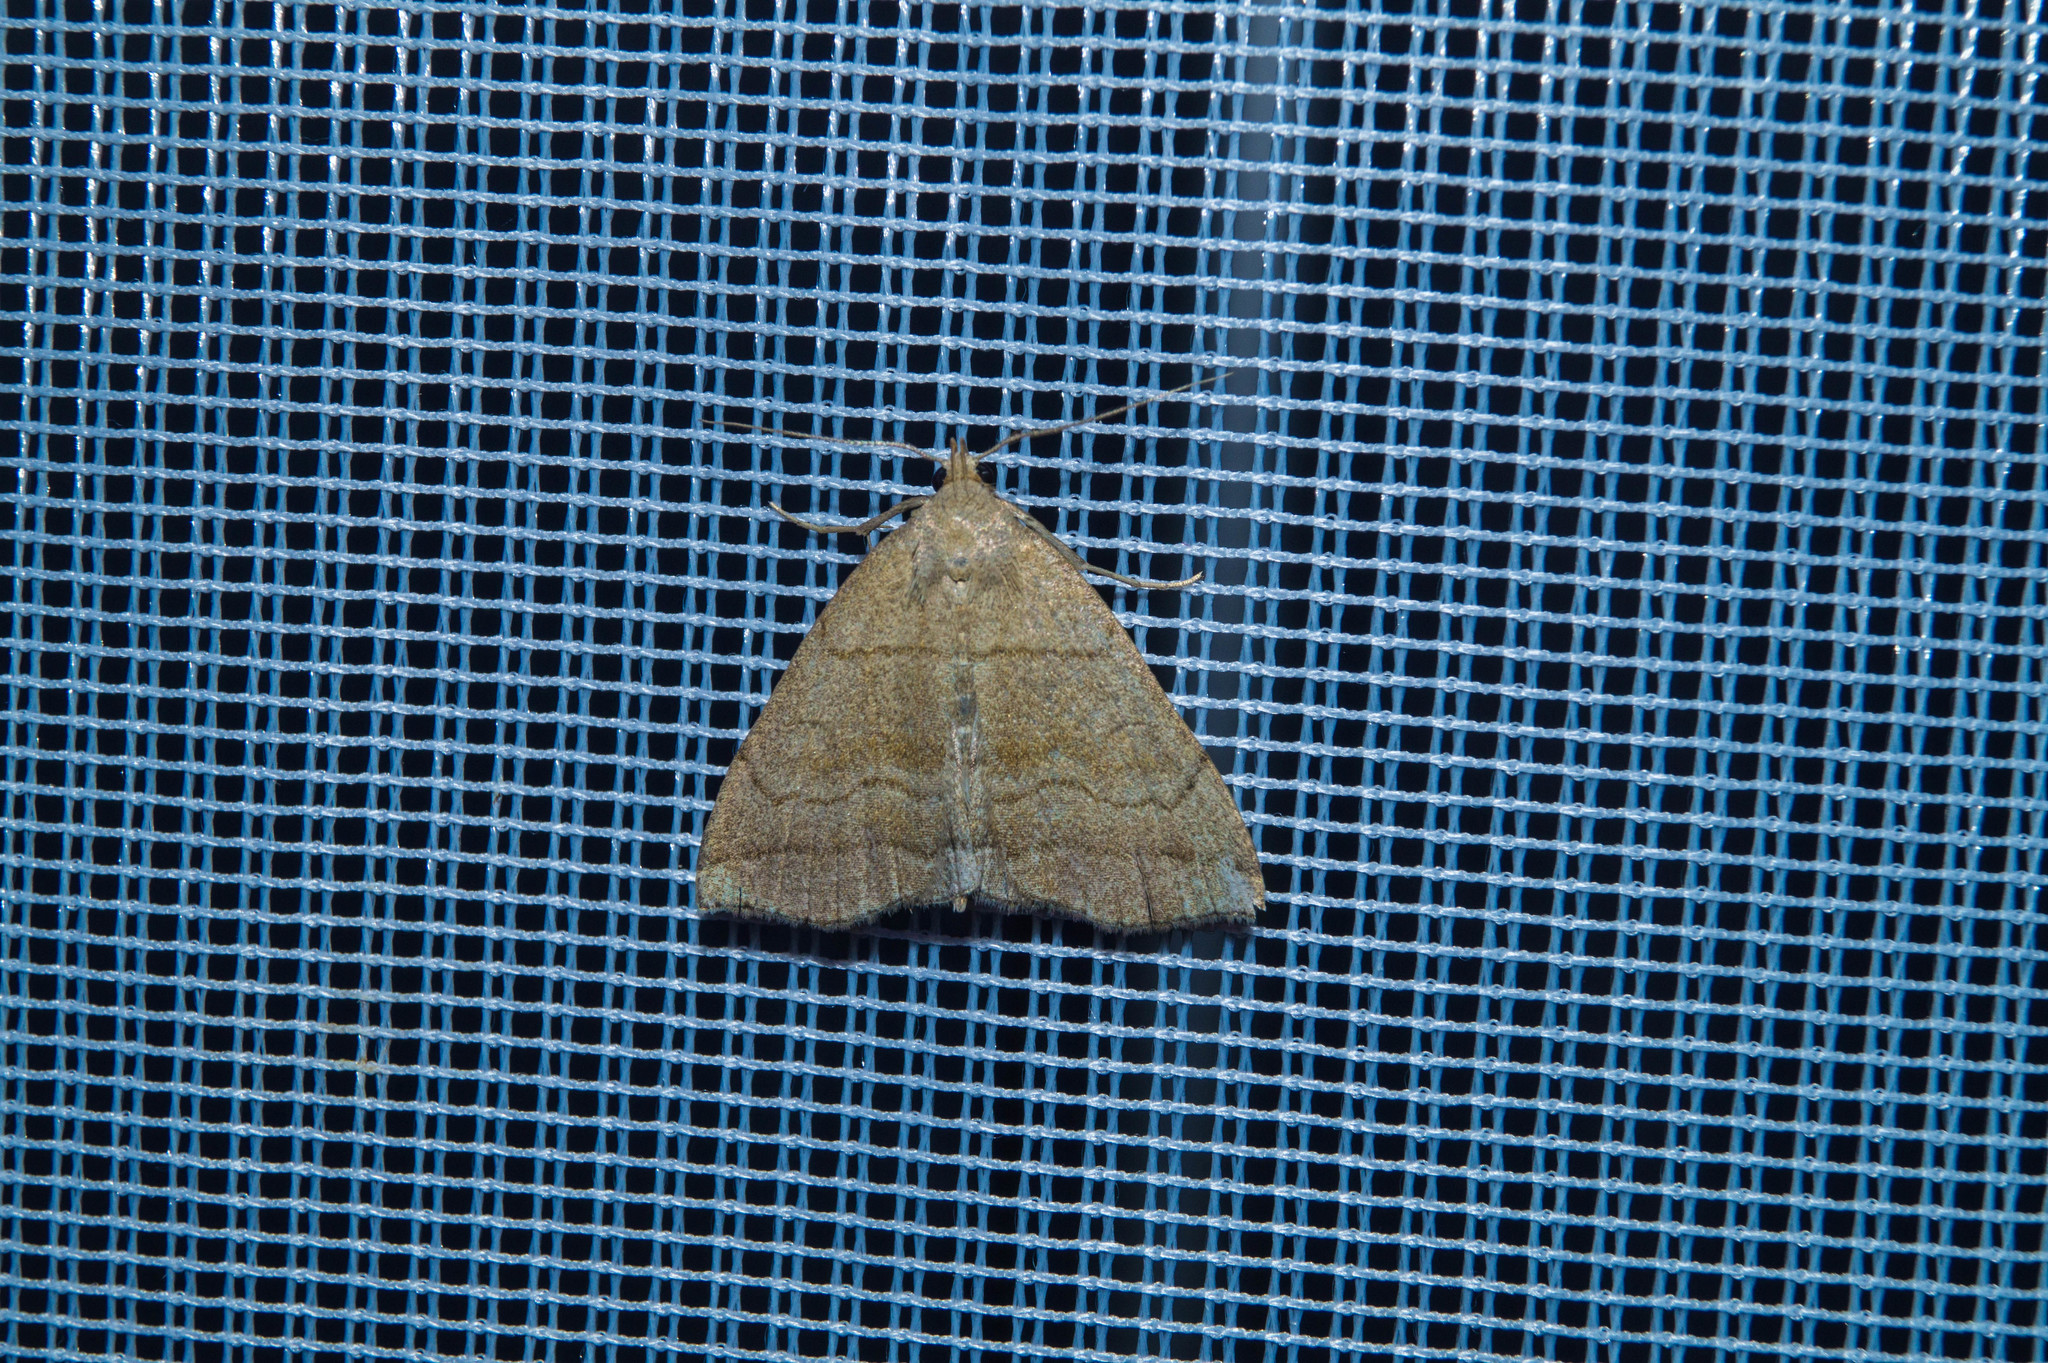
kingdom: Animalia
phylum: Arthropoda
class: Insecta
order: Lepidoptera
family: Erebidae
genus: Herminia
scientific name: Herminia tarsicrinalis
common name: Shaded fan-foot
